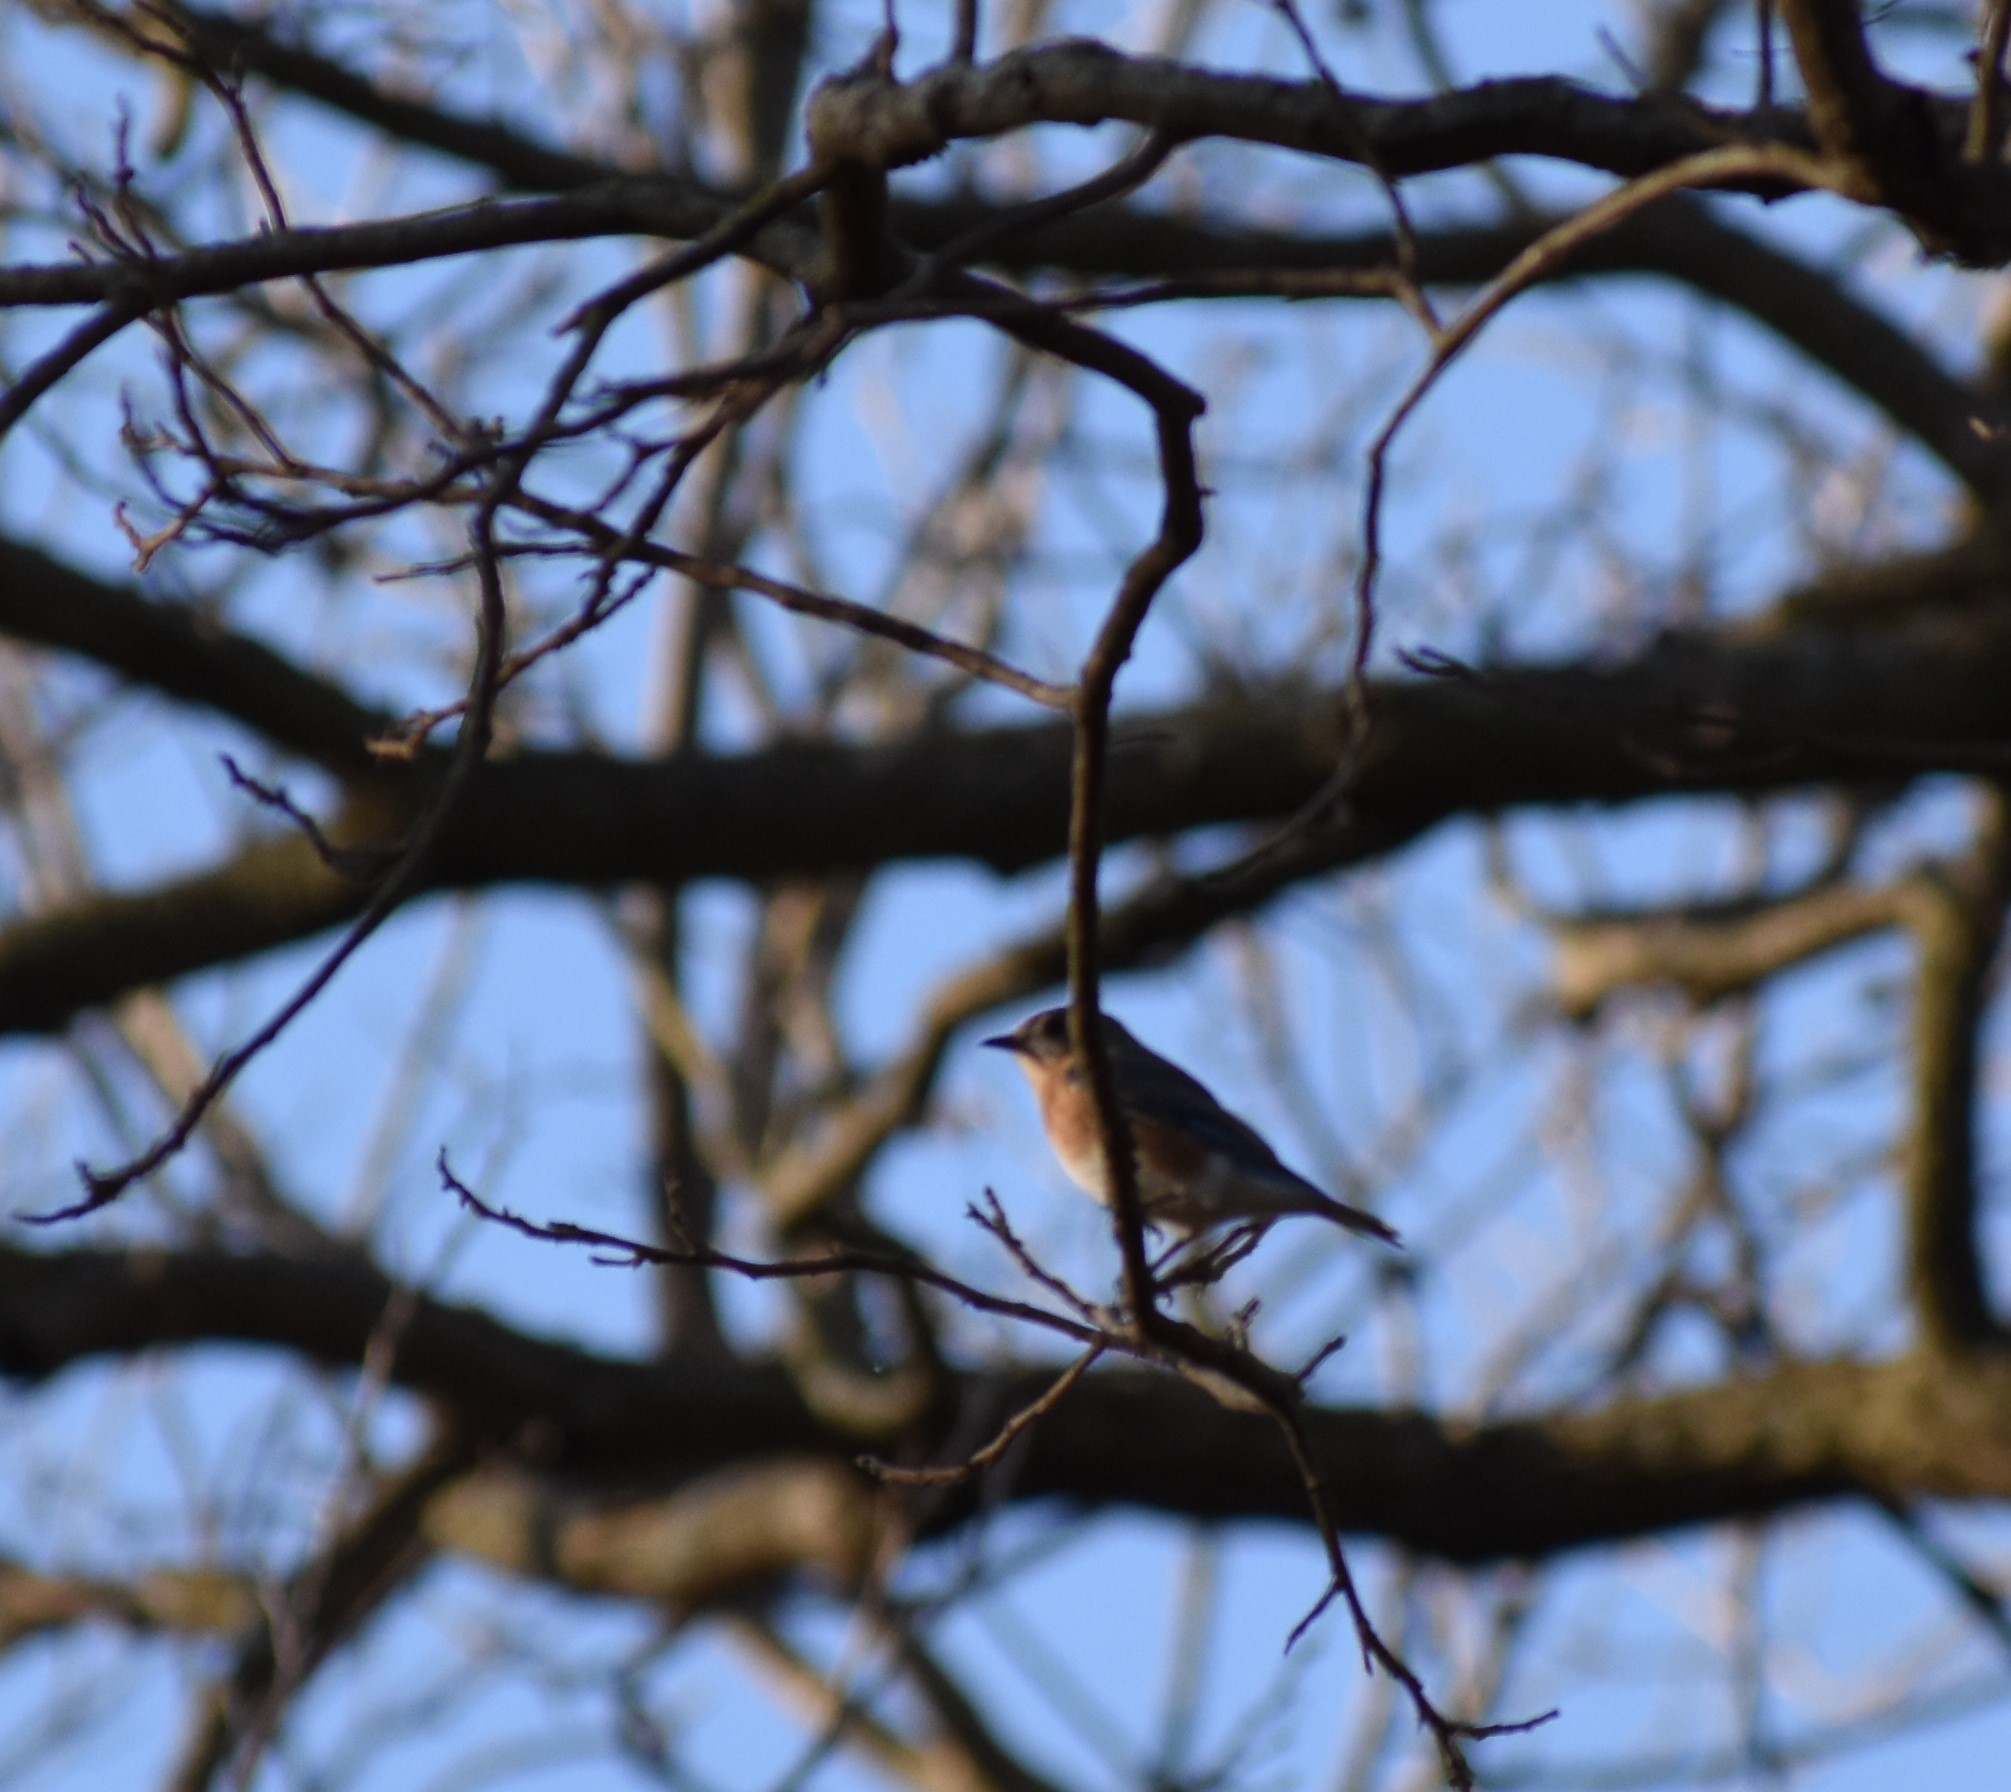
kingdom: Animalia
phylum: Chordata
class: Aves
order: Passeriformes
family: Turdidae
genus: Sialia
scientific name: Sialia sialis
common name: Eastern bluebird
